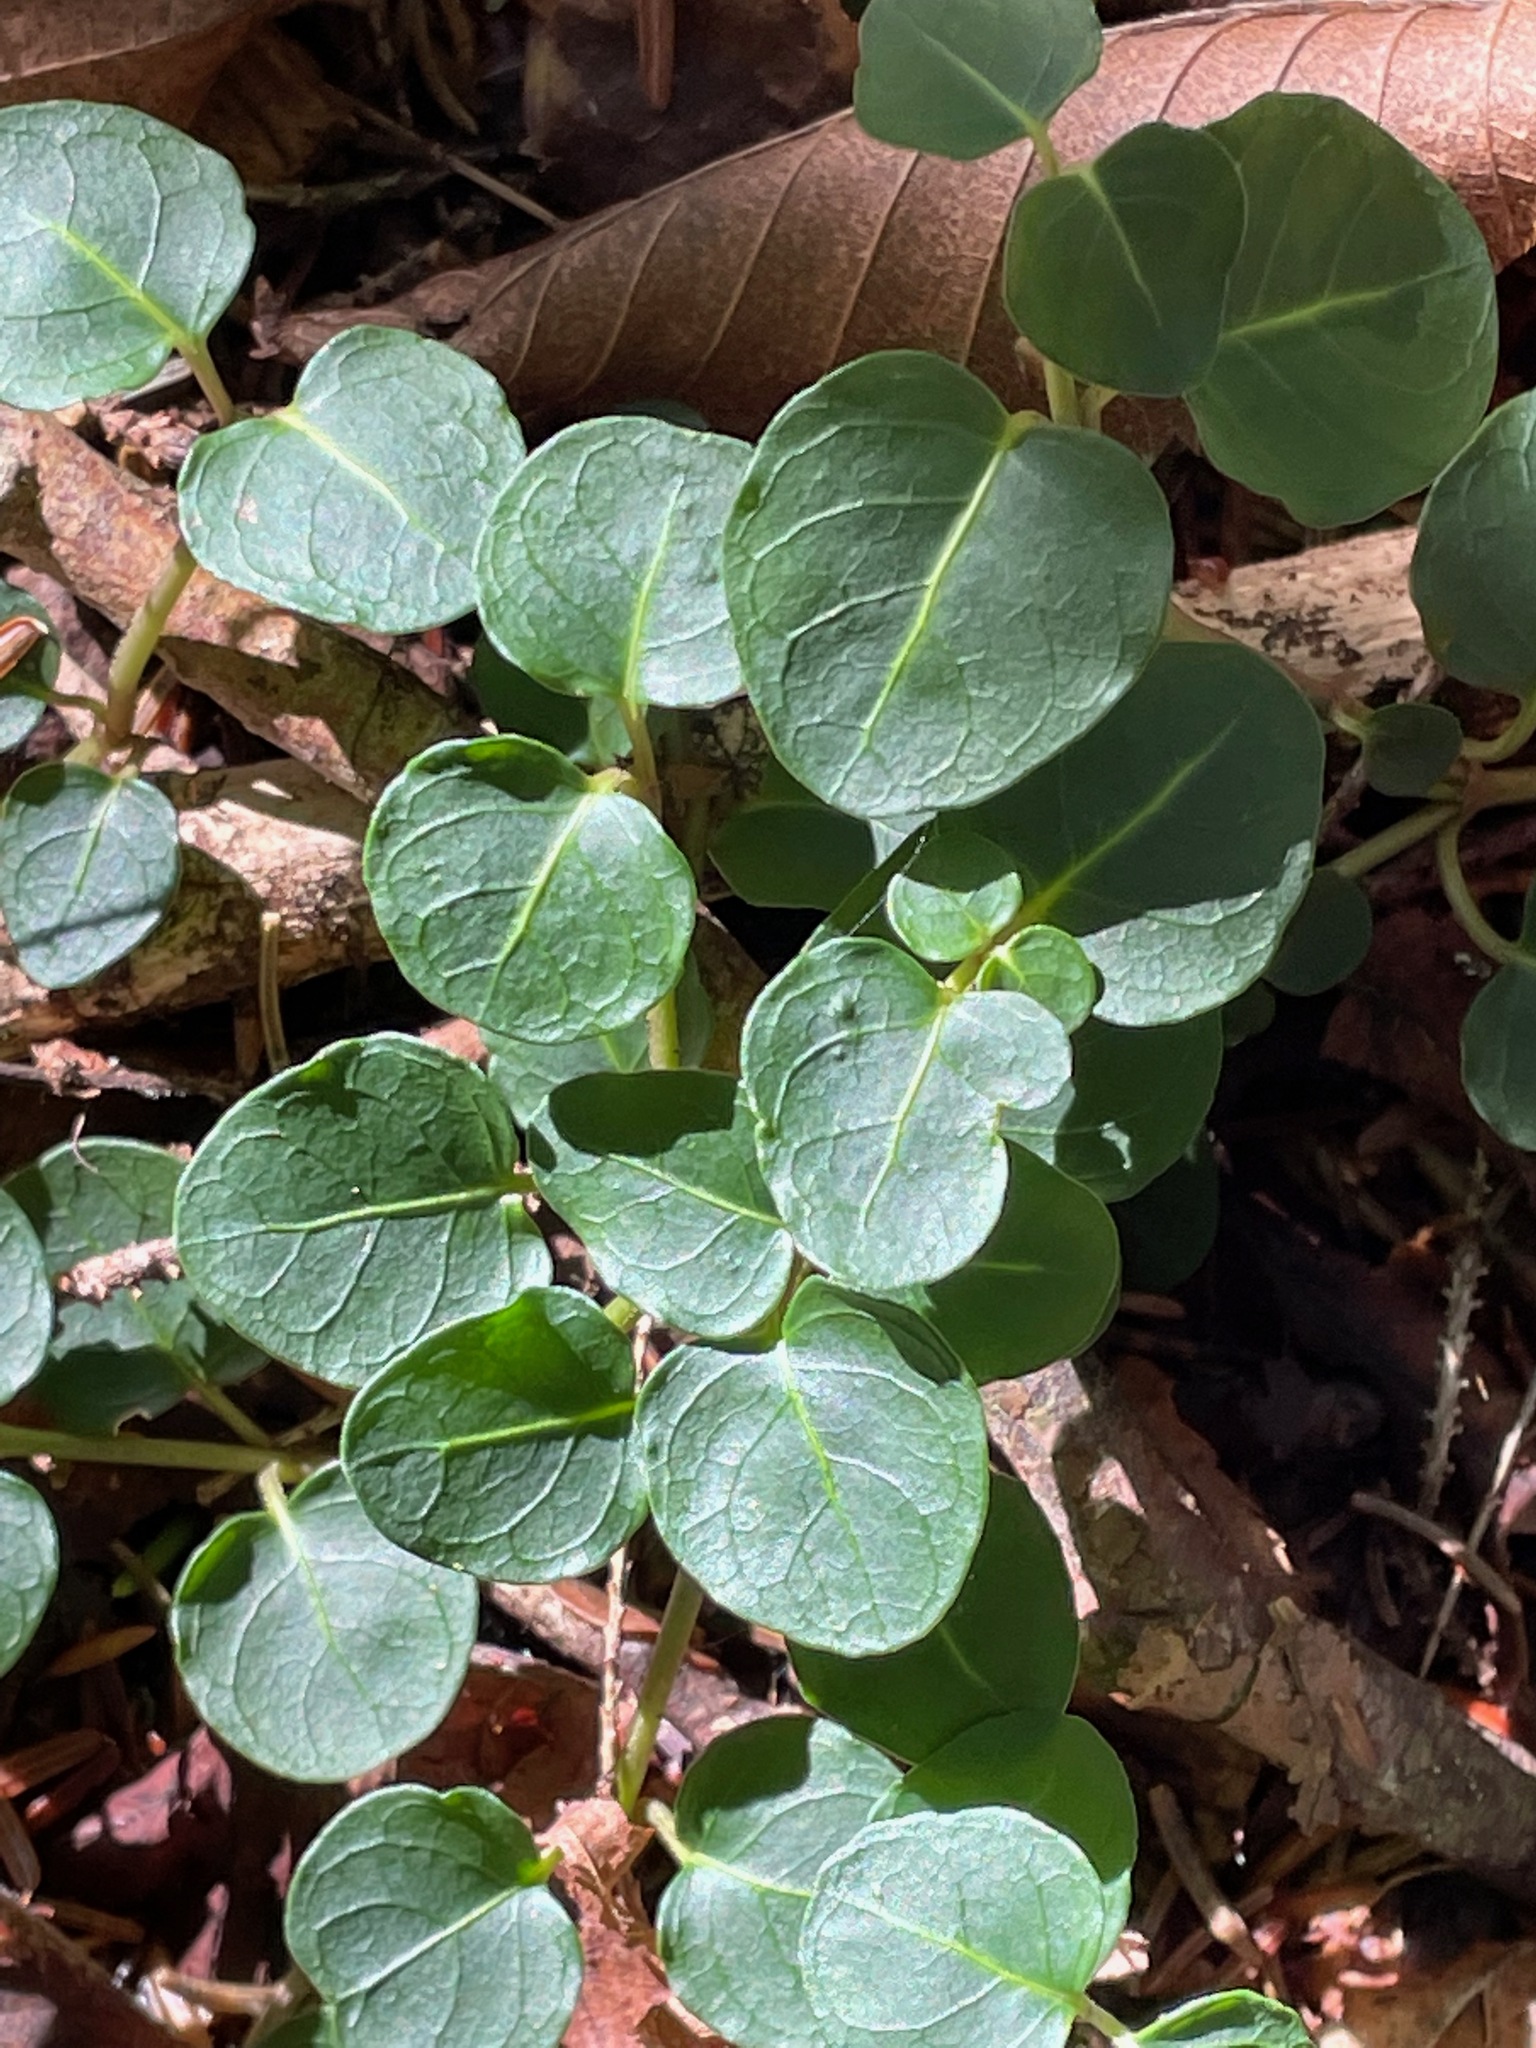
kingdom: Plantae
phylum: Tracheophyta
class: Magnoliopsida
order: Gentianales
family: Rubiaceae
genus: Mitchella
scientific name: Mitchella repens
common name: Partridge-berry
